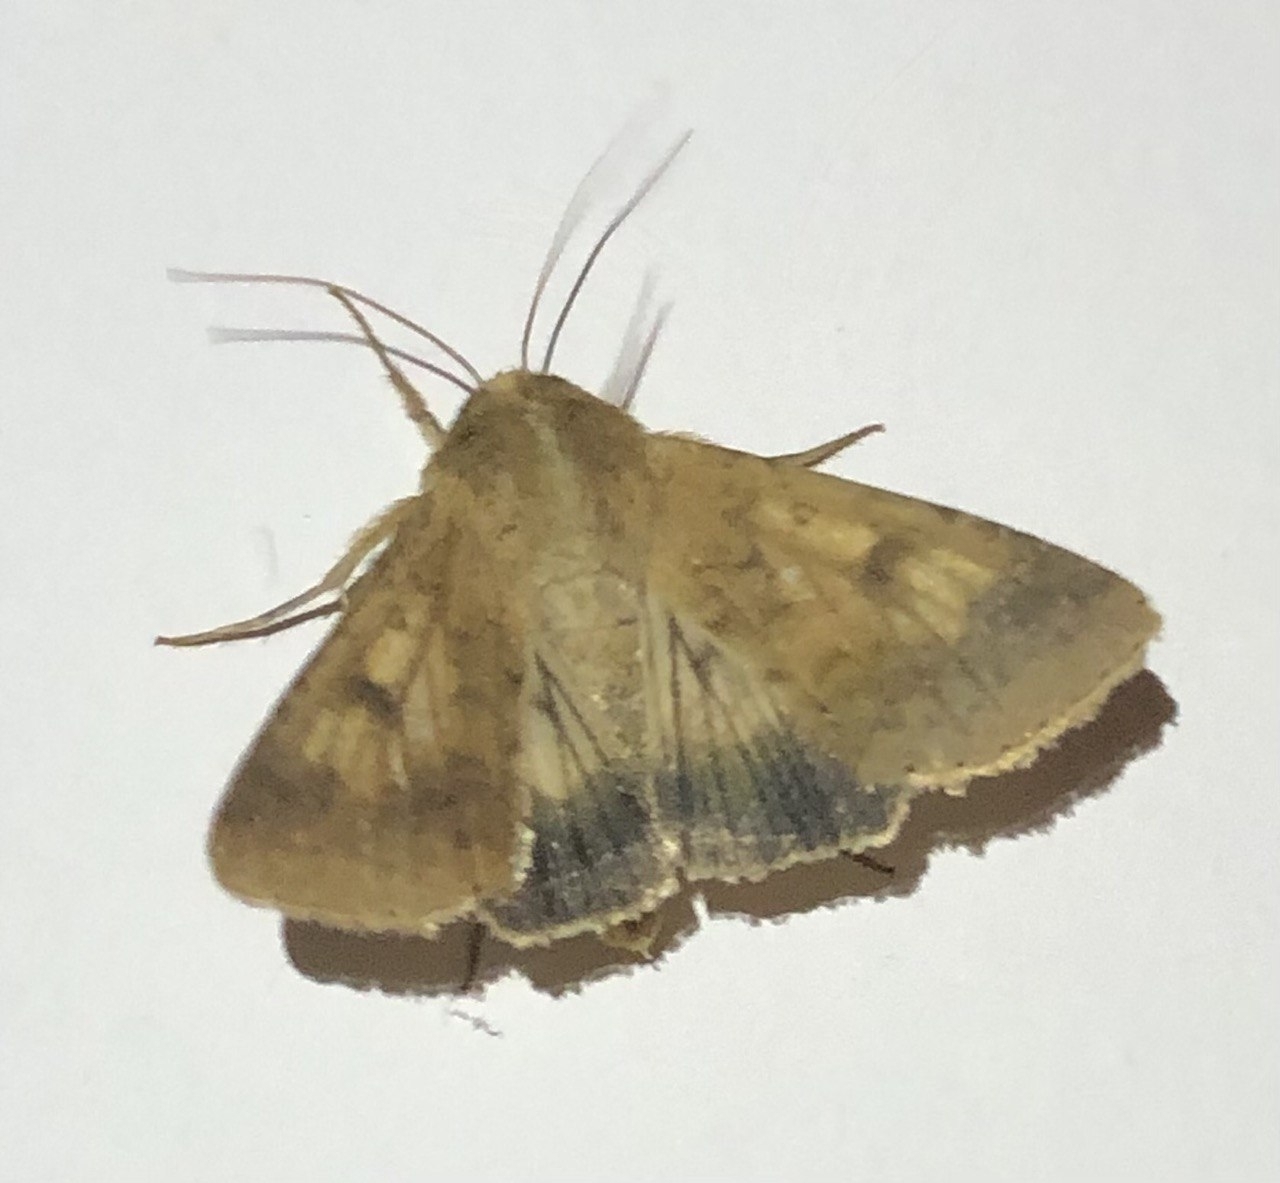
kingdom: Animalia
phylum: Arthropoda
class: Insecta
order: Lepidoptera
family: Noctuidae
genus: Helicoverpa
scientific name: Helicoverpa armigera
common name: Cotton bollworm
